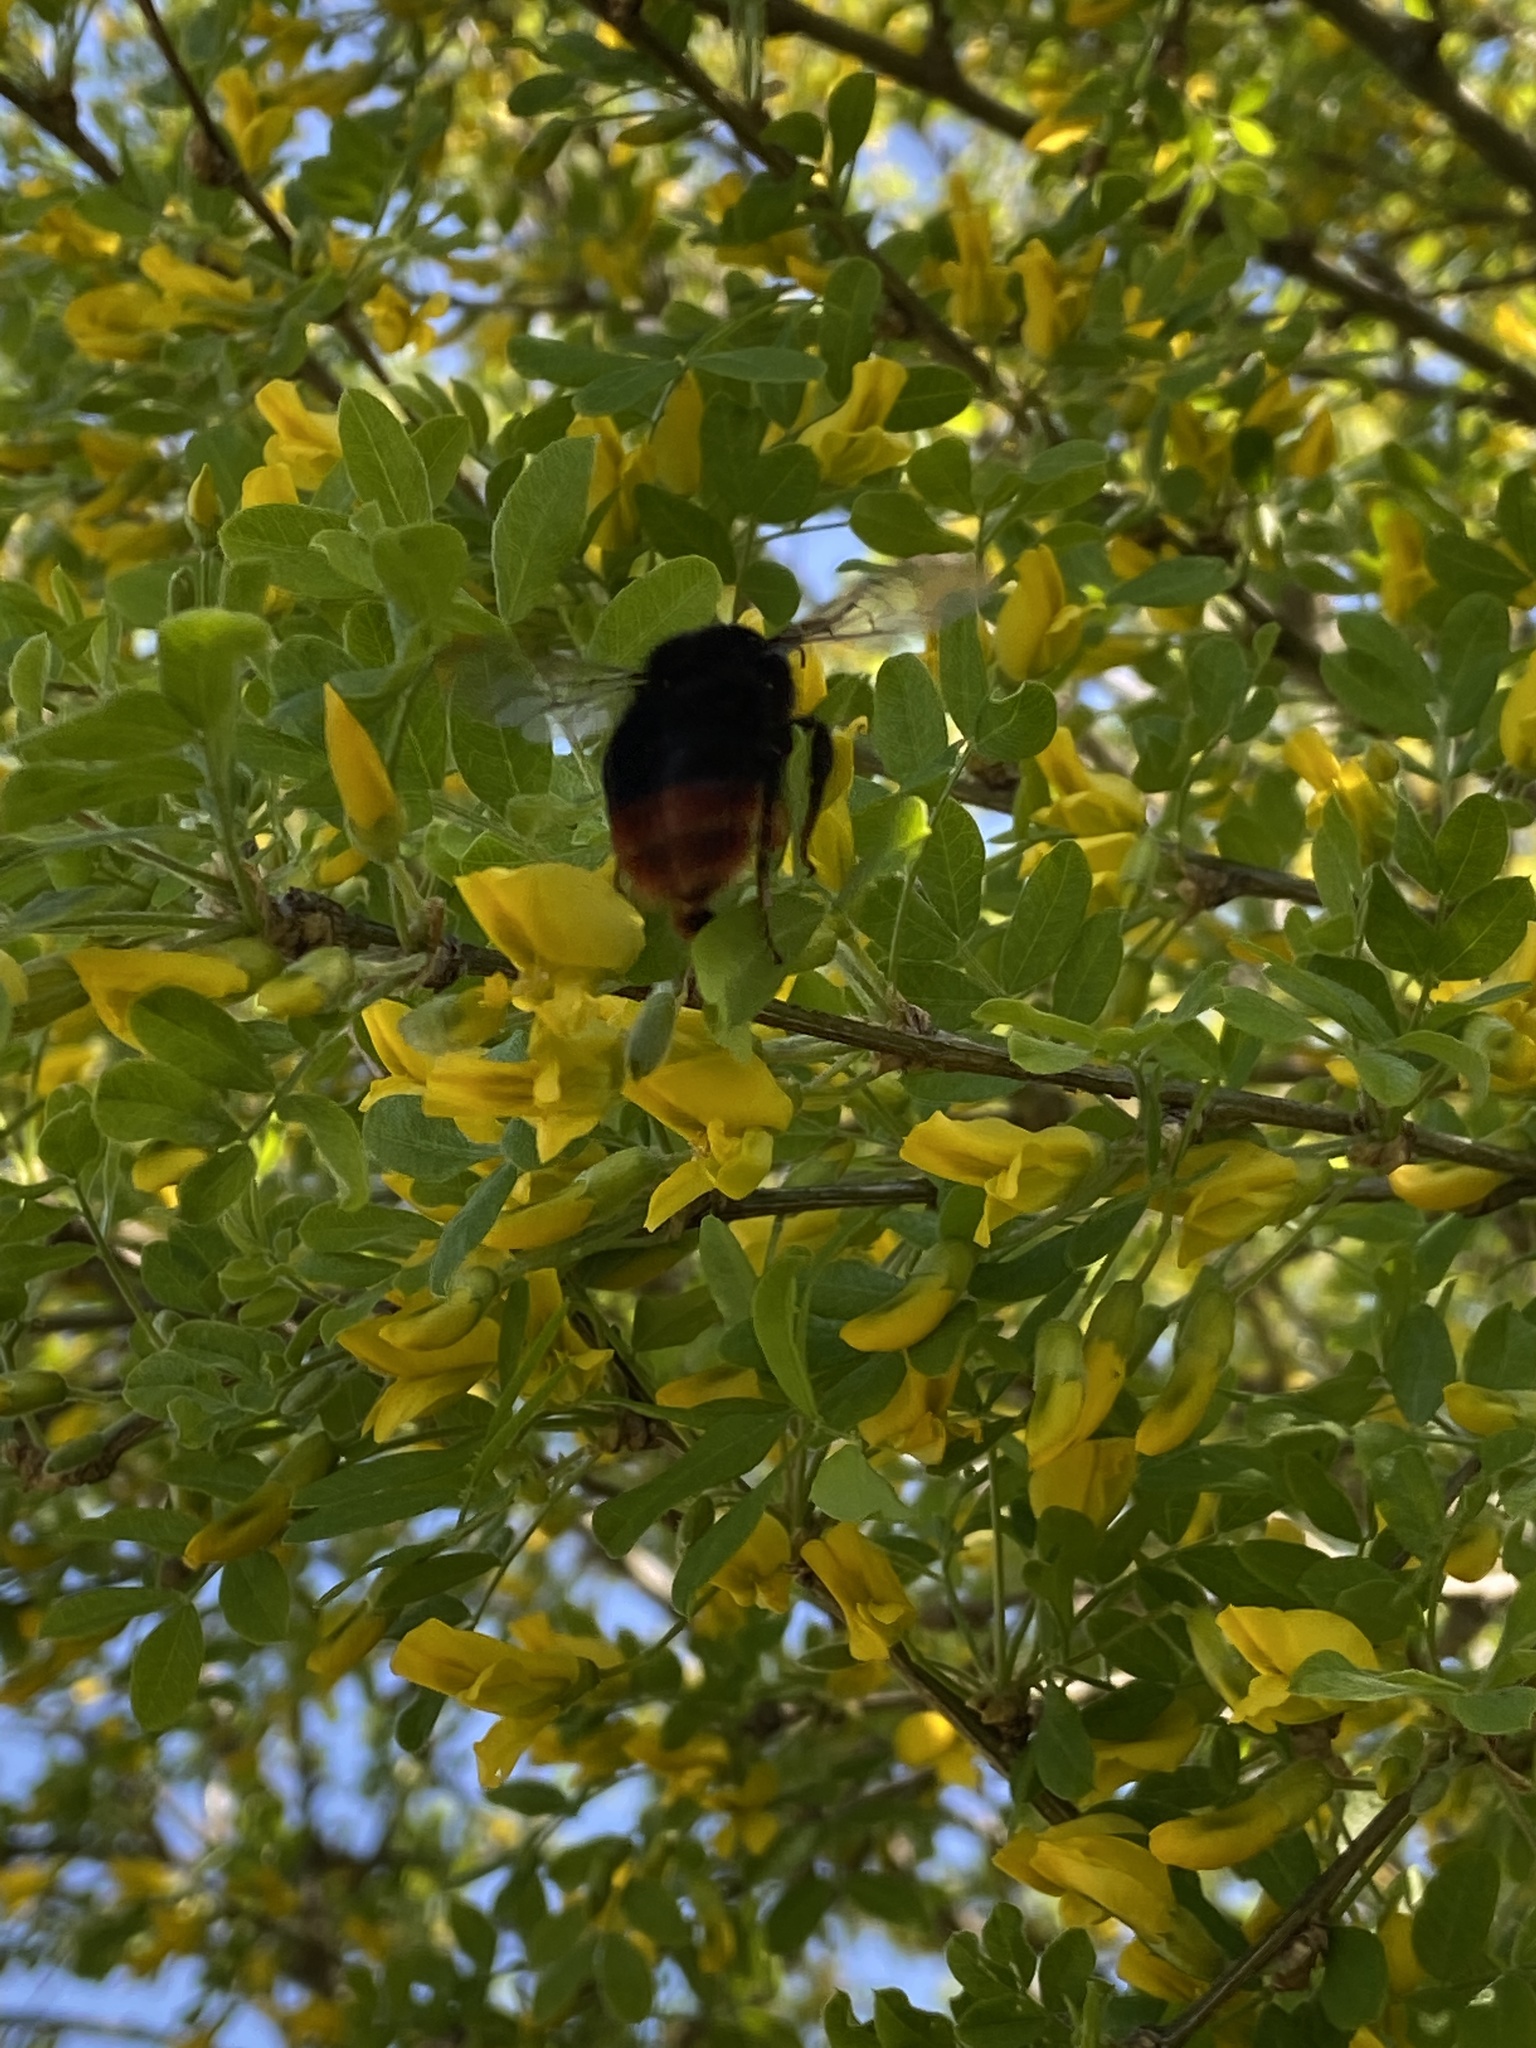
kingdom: Animalia
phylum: Arthropoda
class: Insecta
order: Hymenoptera
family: Apidae
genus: Bombus
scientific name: Bombus lapidarius
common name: Large red-tailed humble-bee
